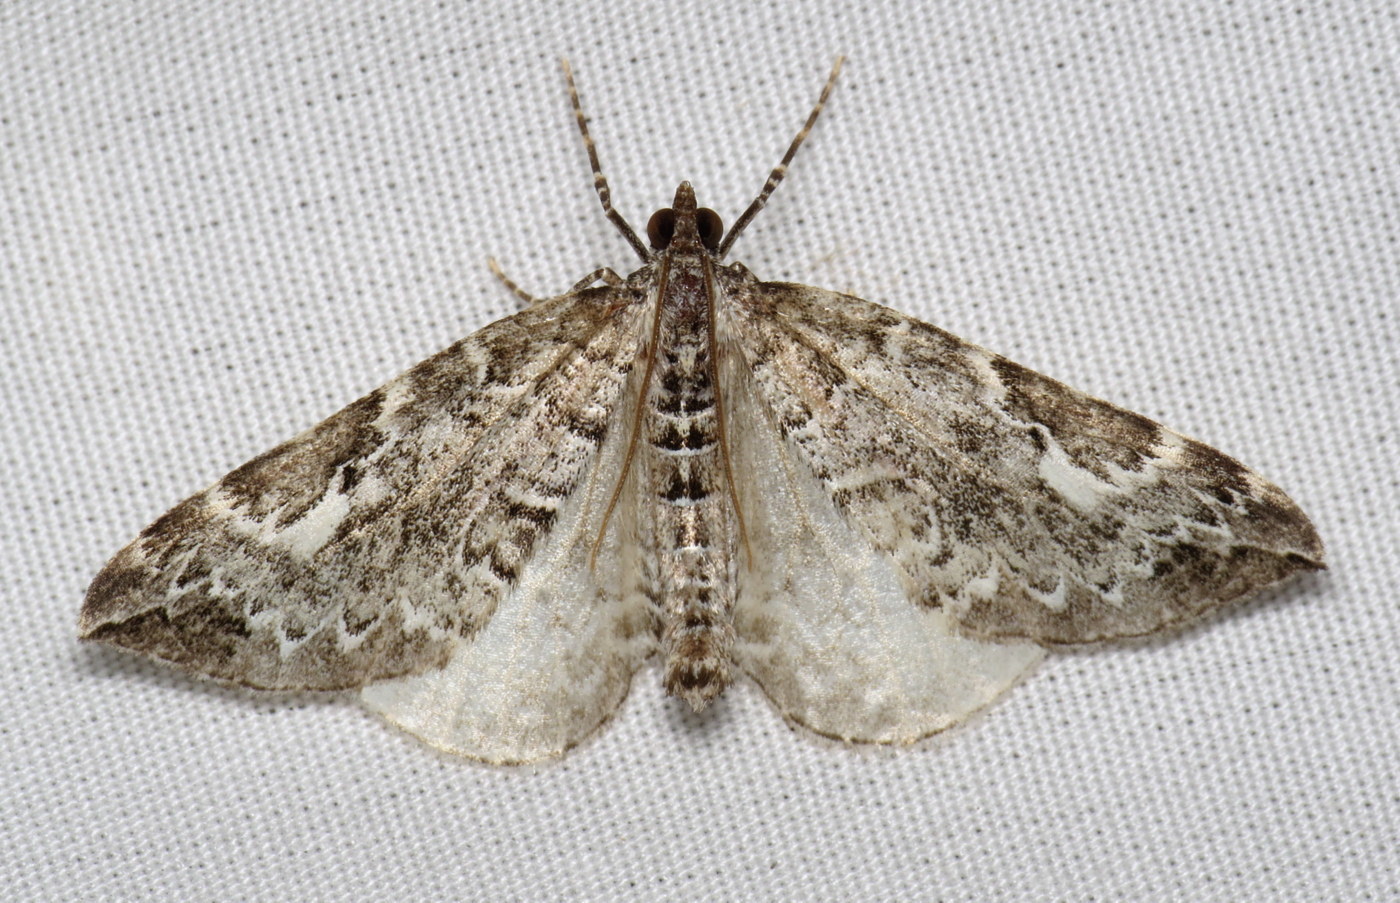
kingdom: Animalia
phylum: Arthropoda
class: Insecta
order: Lepidoptera
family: Geometridae
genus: Eulithis
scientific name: Eulithis explanata
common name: White eulithis
